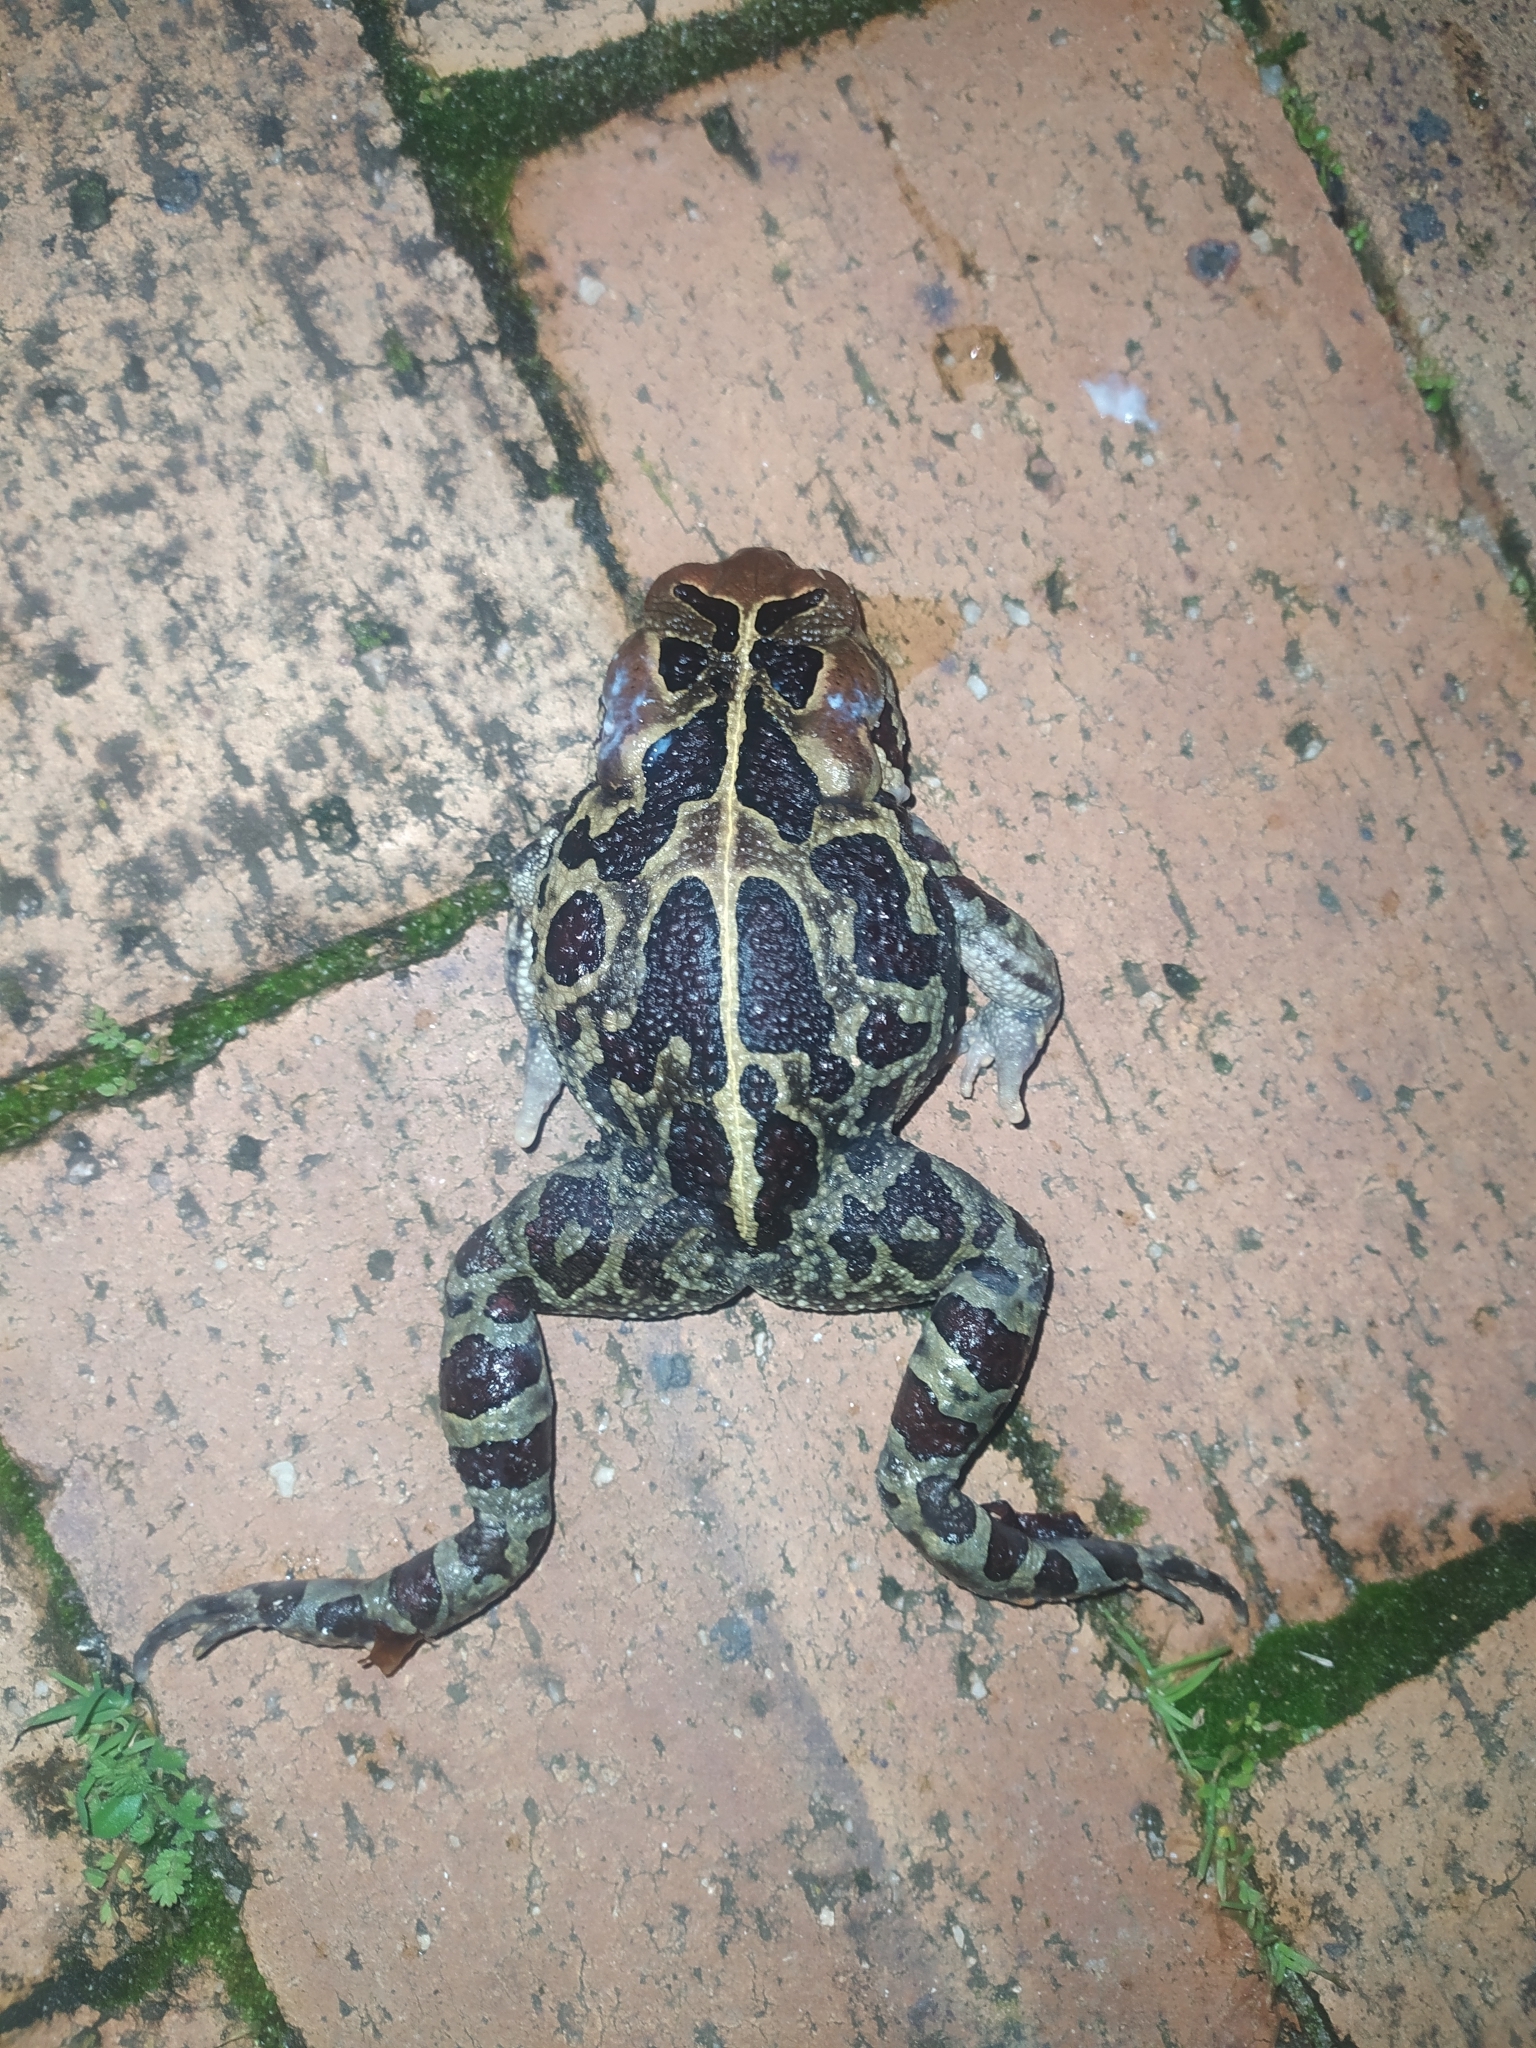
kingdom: Animalia
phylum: Chordata
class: Amphibia
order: Anura
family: Bufonidae
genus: Sclerophrys
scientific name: Sclerophrys pantherina
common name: Panther toad
